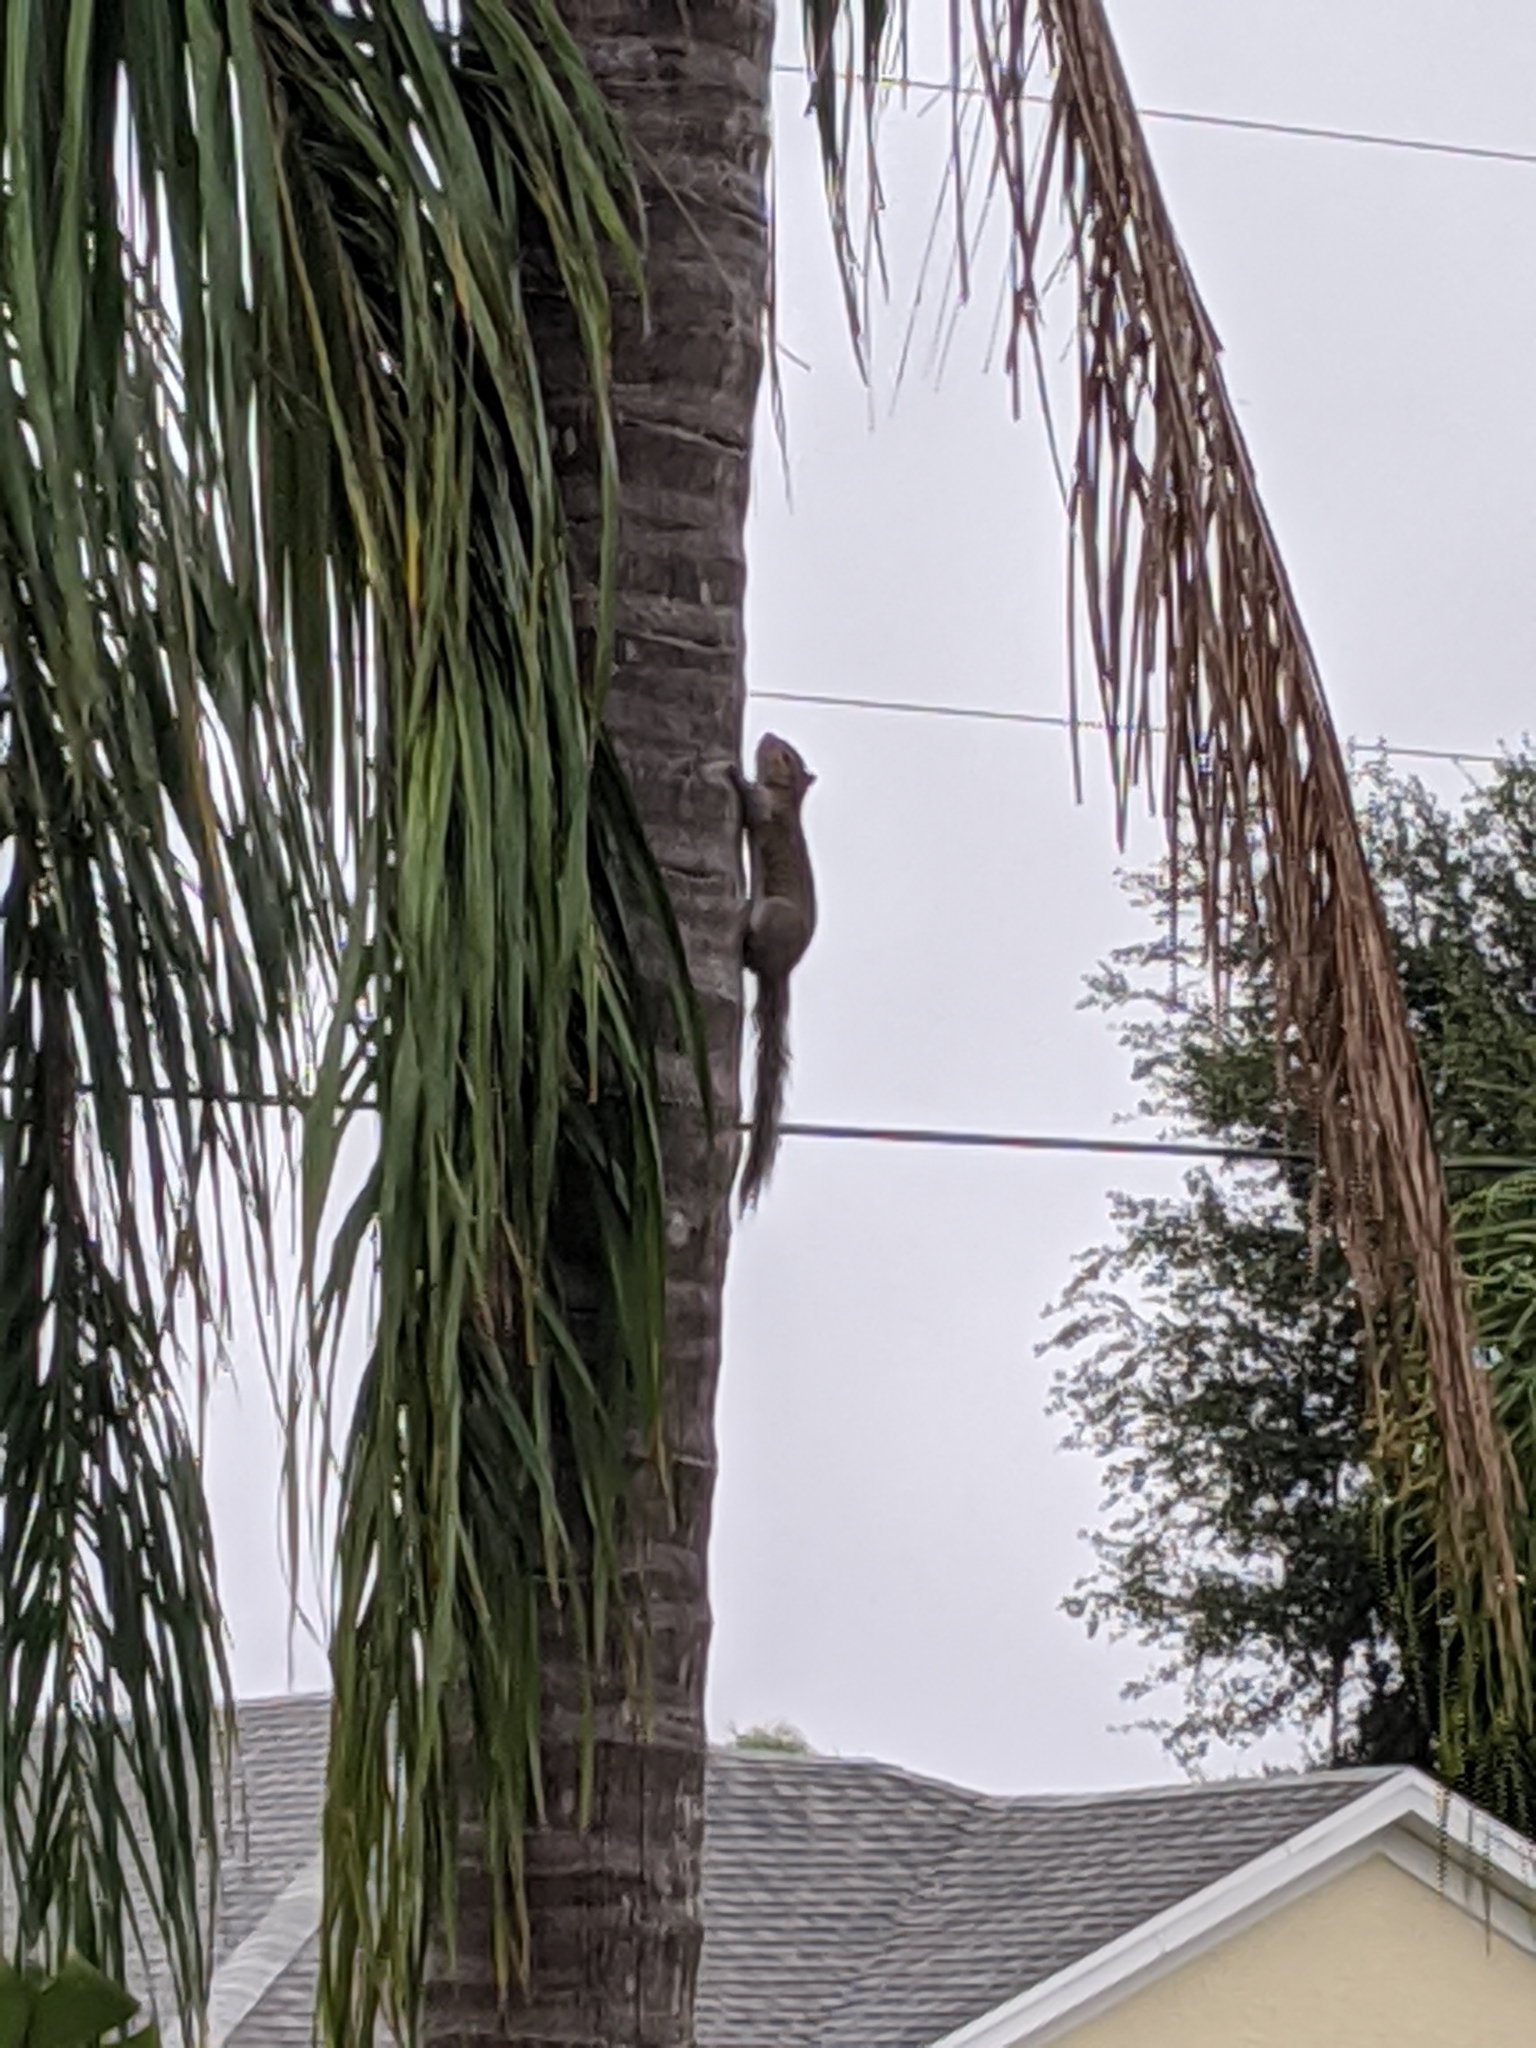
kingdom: Animalia
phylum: Chordata
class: Mammalia
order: Rodentia
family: Sciuridae
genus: Sciurus
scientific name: Sciurus carolinensis
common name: Eastern gray squirrel
